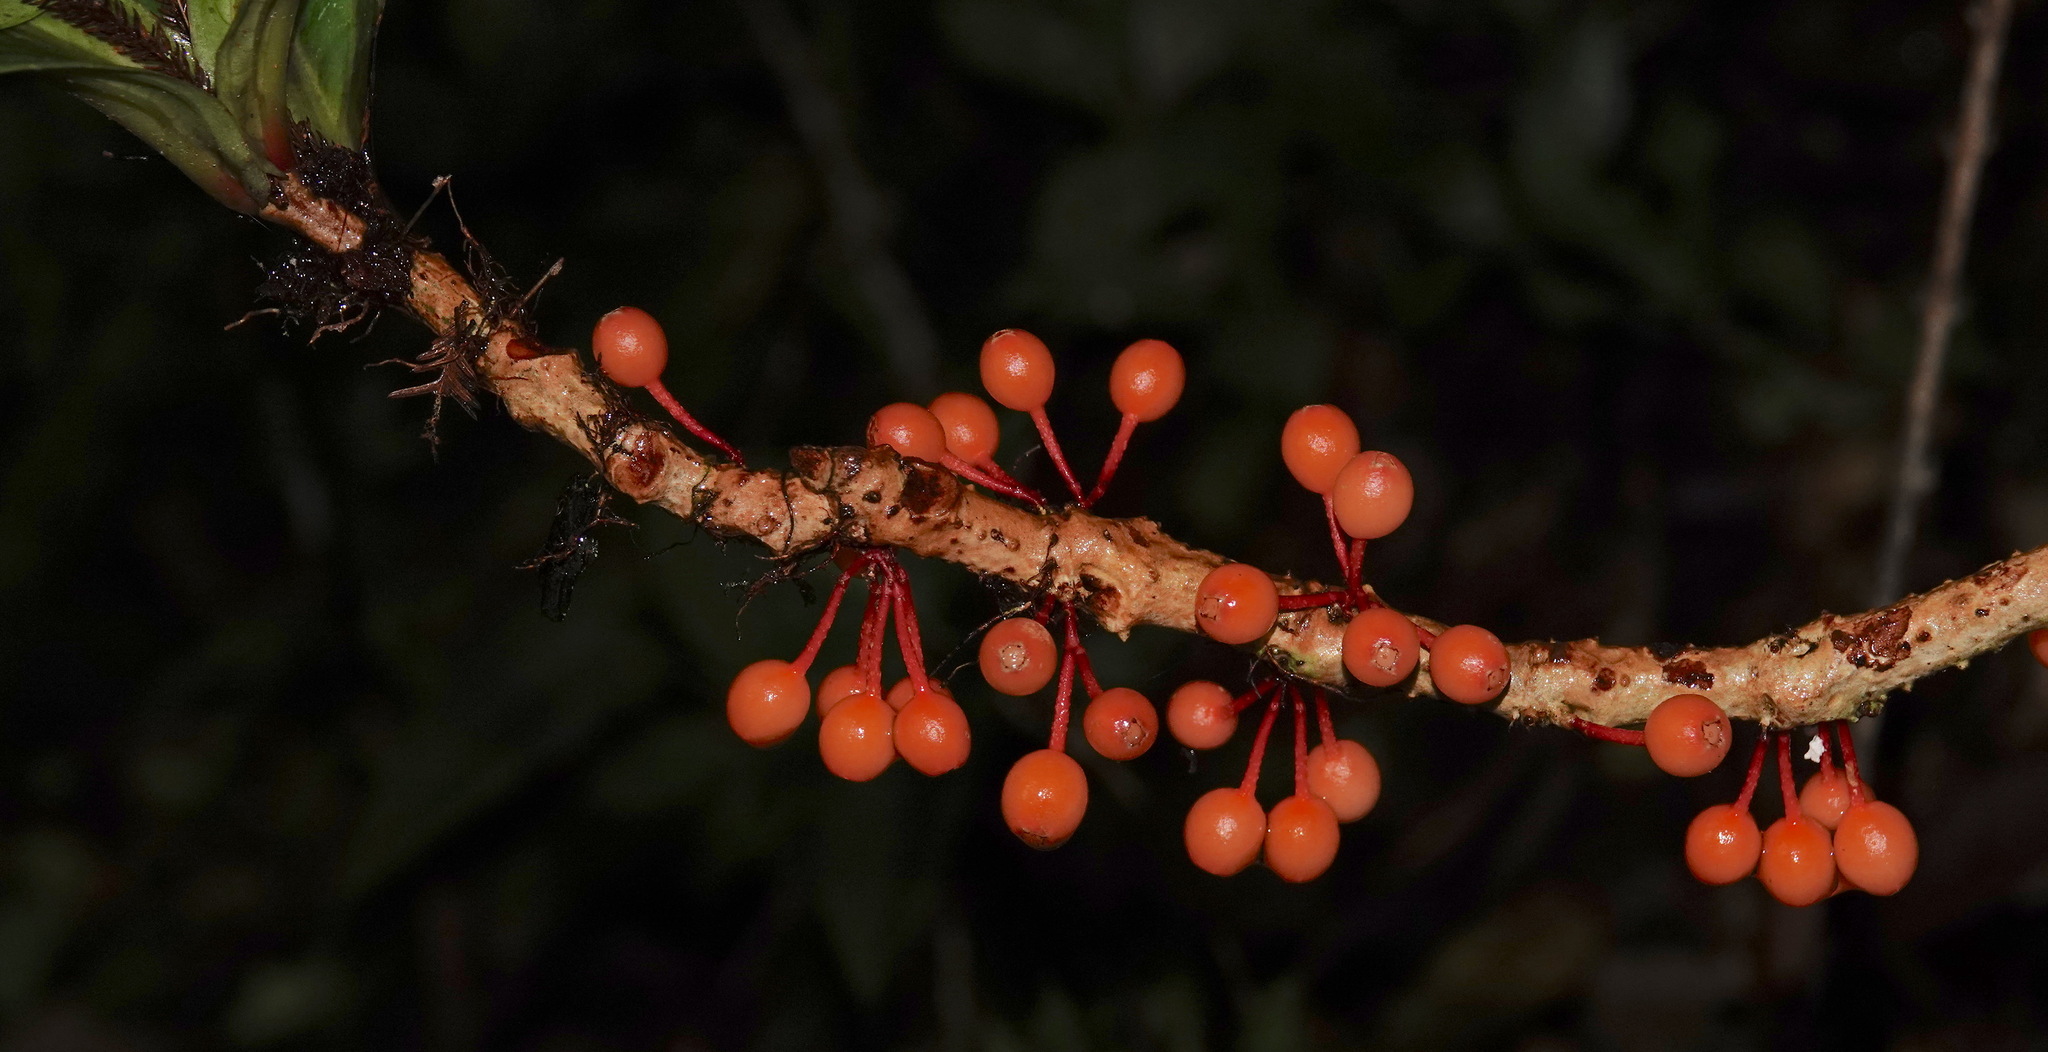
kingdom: Plantae
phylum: Tracheophyta
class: Magnoliopsida
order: Myrtales
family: Melastomataceae
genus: Medinilla
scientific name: Medinilla amplectens
